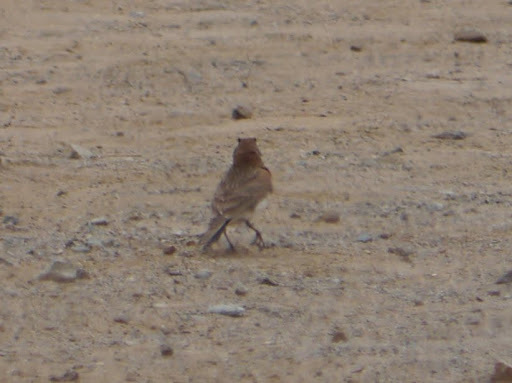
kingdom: Animalia
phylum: Chordata
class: Aves
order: Passeriformes
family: Alaudidae
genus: Eremophila
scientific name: Eremophila alpestris
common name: Horned lark
